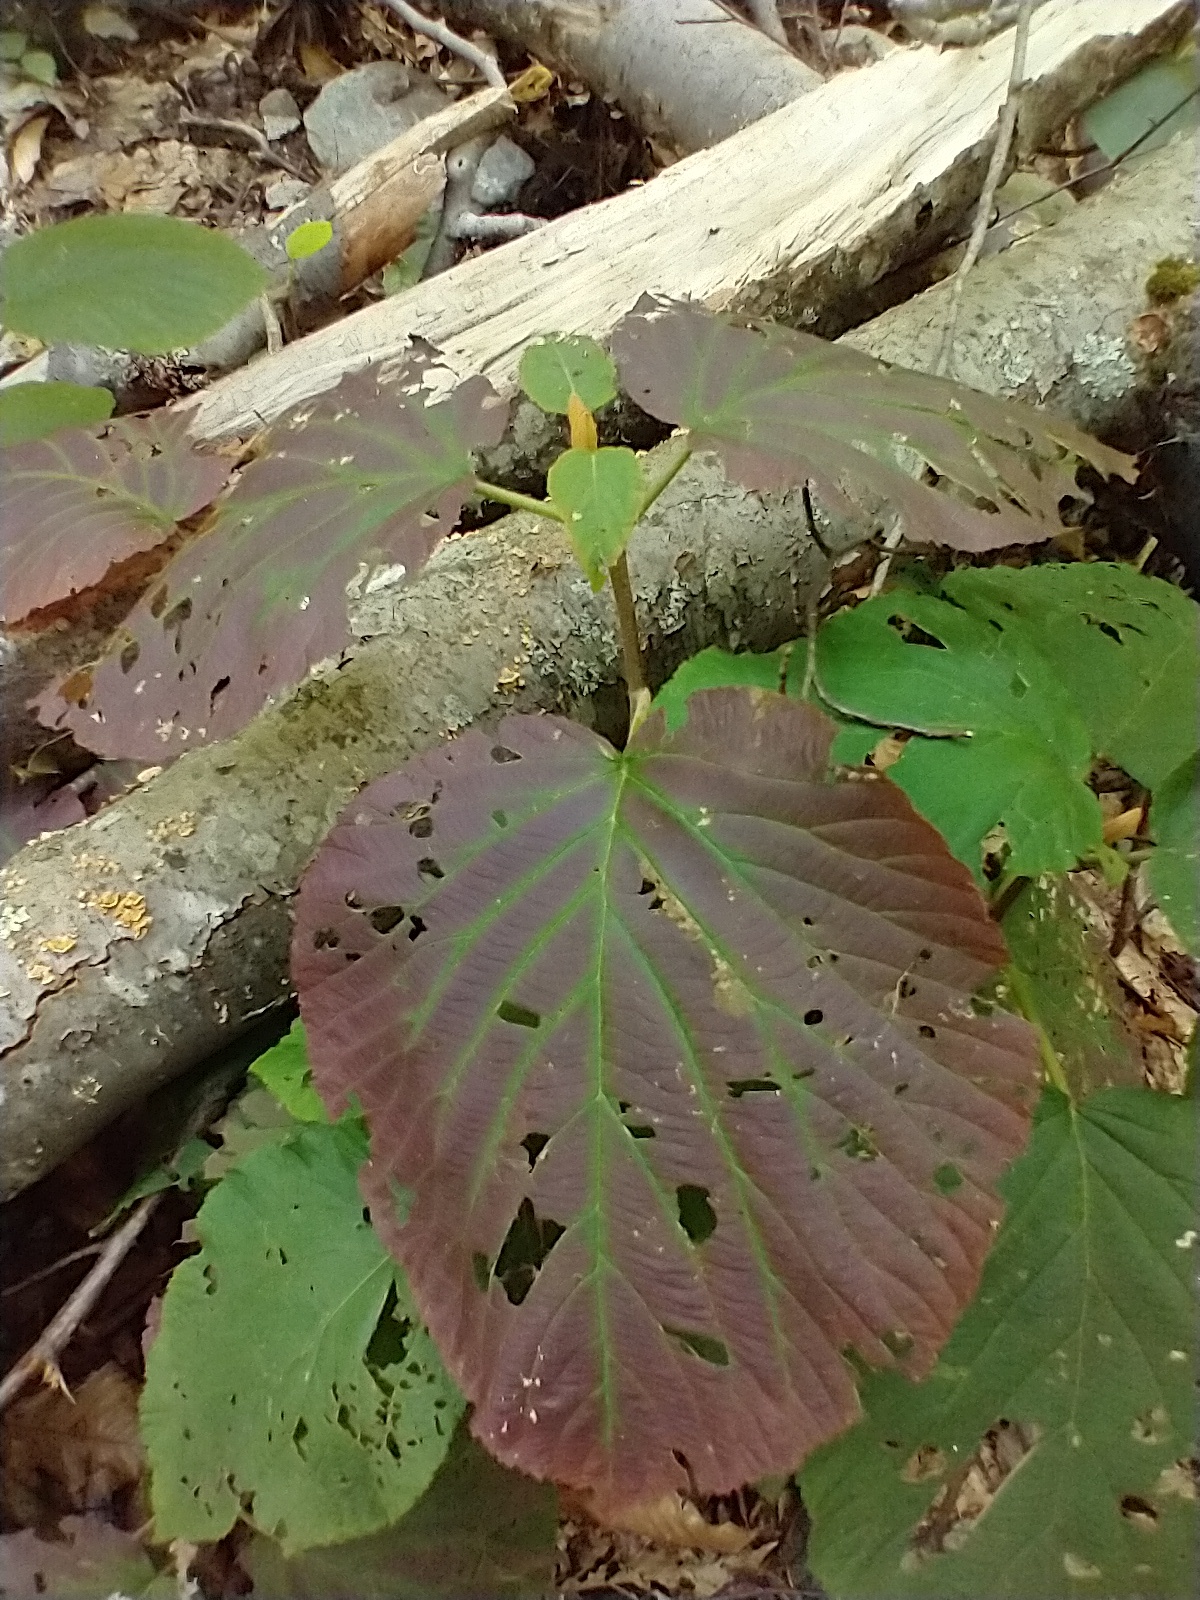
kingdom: Plantae
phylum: Tracheophyta
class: Magnoliopsida
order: Dipsacales
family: Viburnaceae
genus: Viburnum
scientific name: Viburnum lantanoides
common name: Hobblebush
